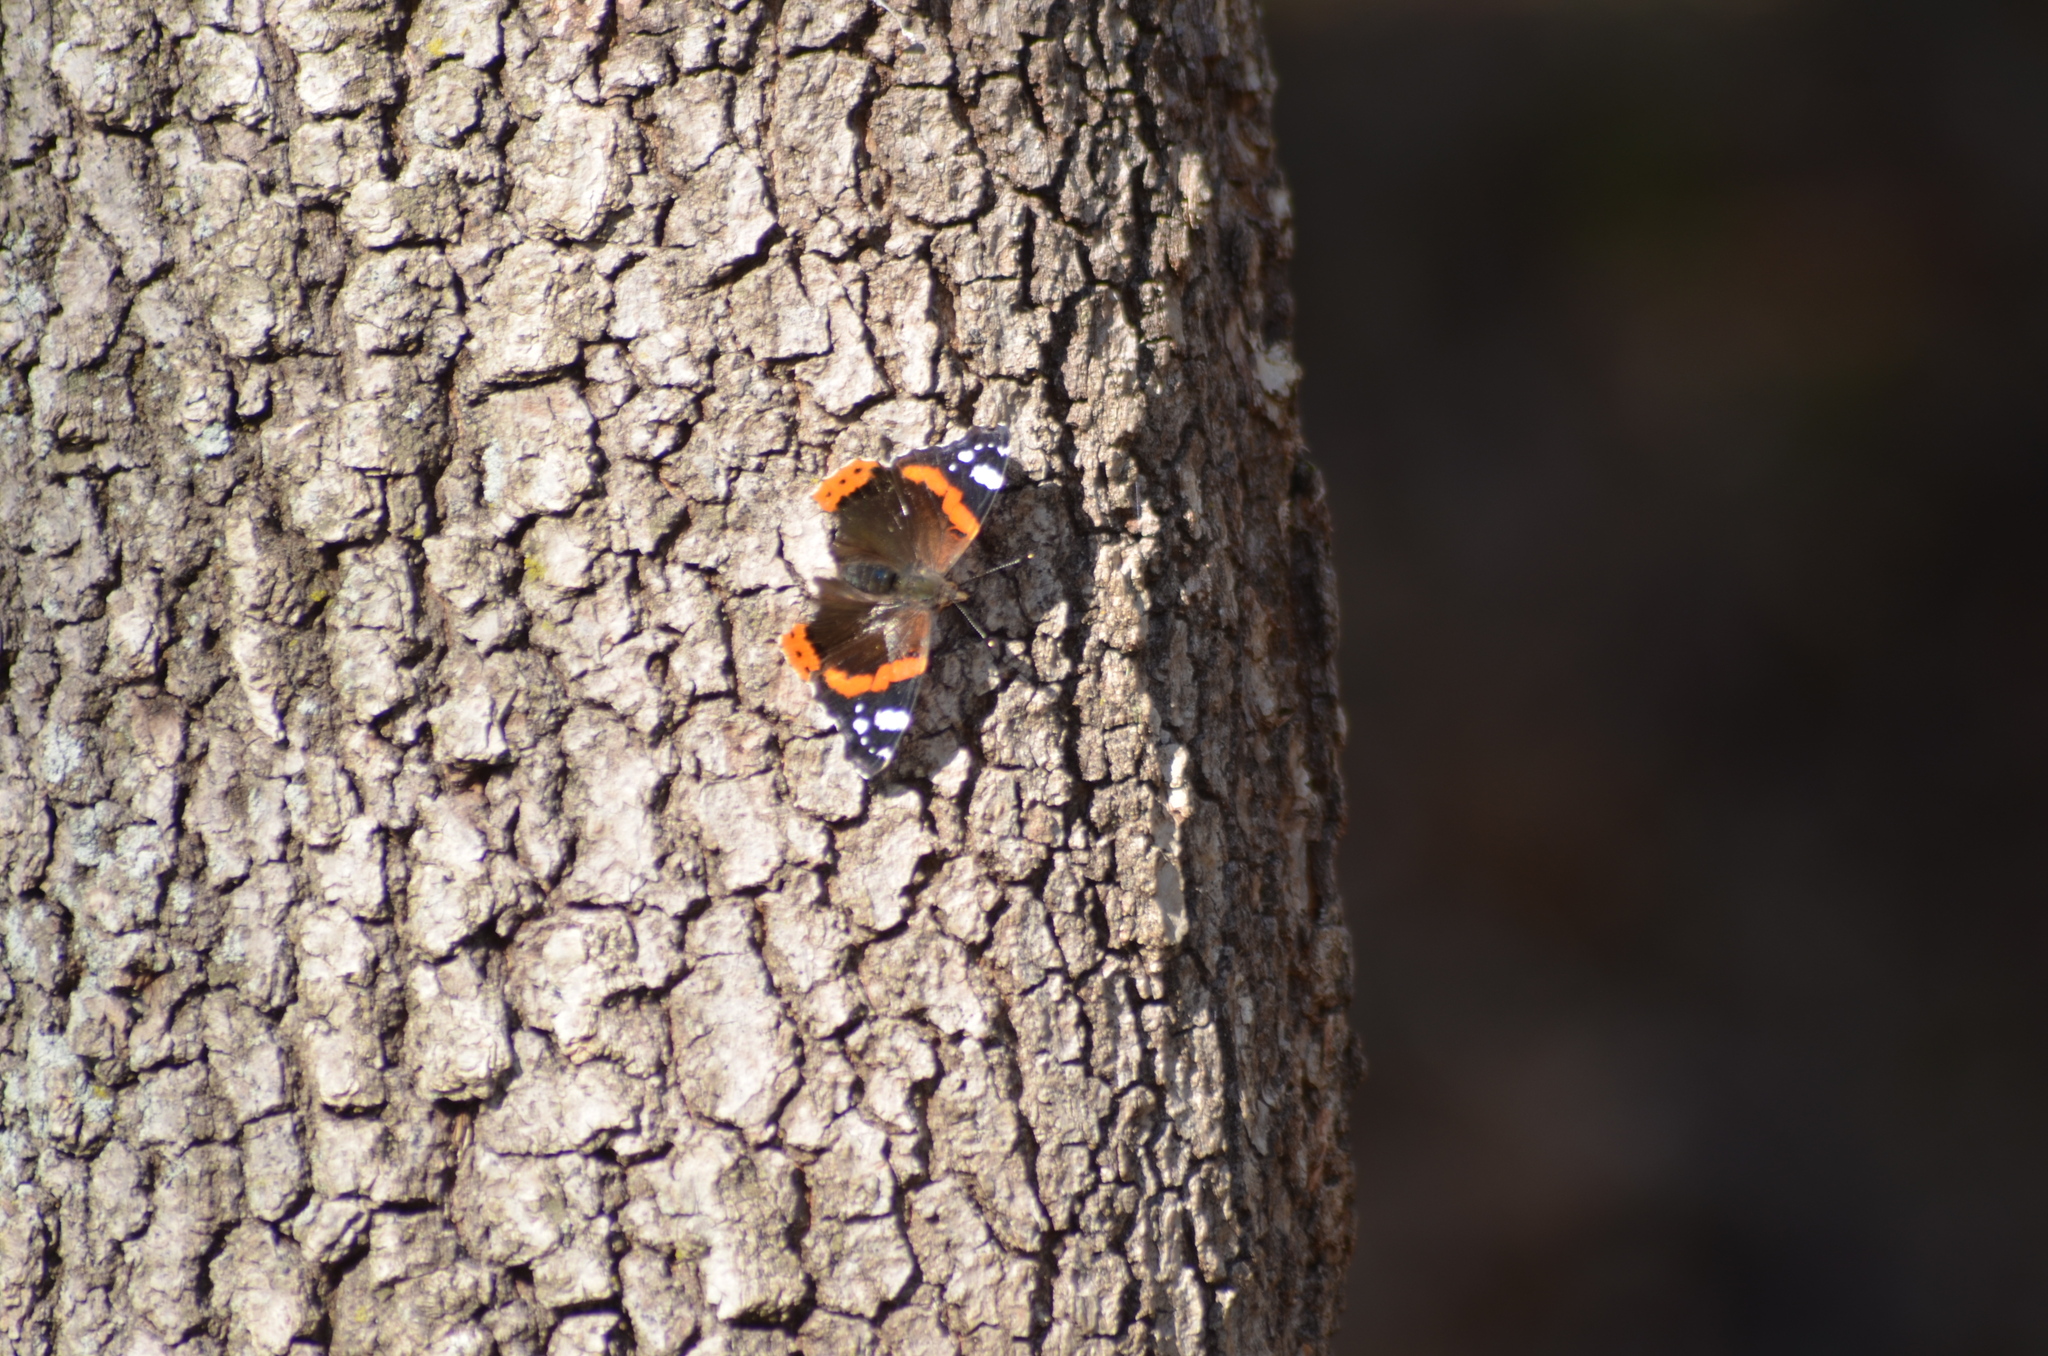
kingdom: Animalia
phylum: Arthropoda
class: Insecta
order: Lepidoptera
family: Nymphalidae
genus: Vanessa
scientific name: Vanessa atalanta
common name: Red admiral
